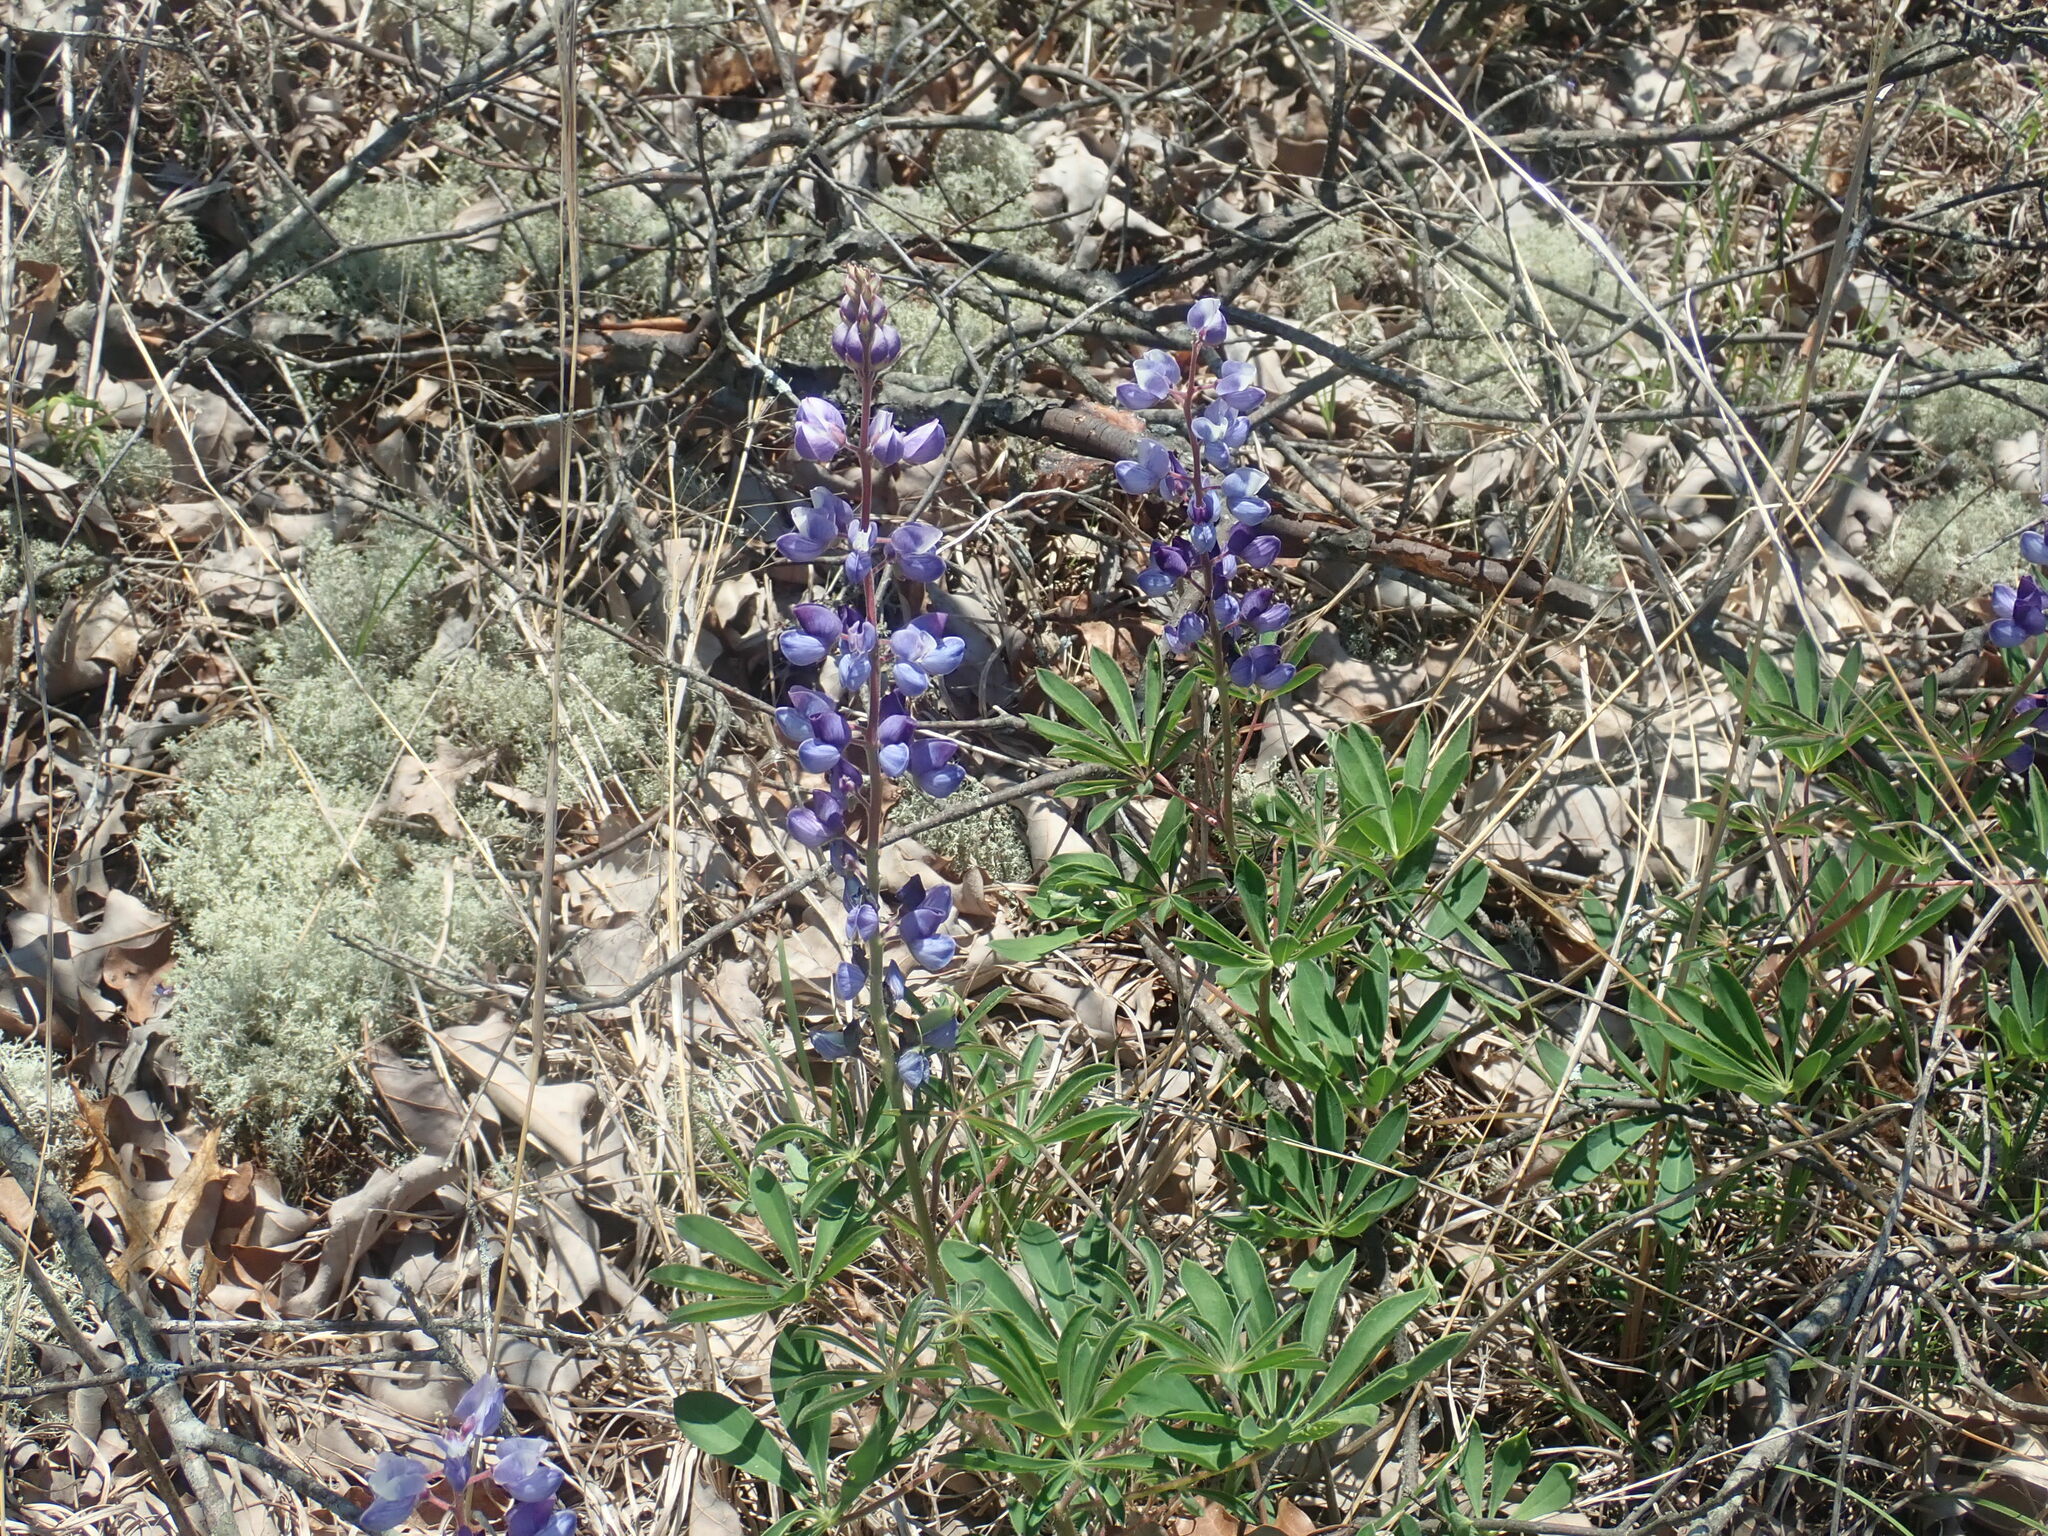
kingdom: Plantae
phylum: Tracheophyta
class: Magnoliopsida
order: Fabales
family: Fabaceae
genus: Lupinus
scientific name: Lupinus perennis
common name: Sundial lupine
